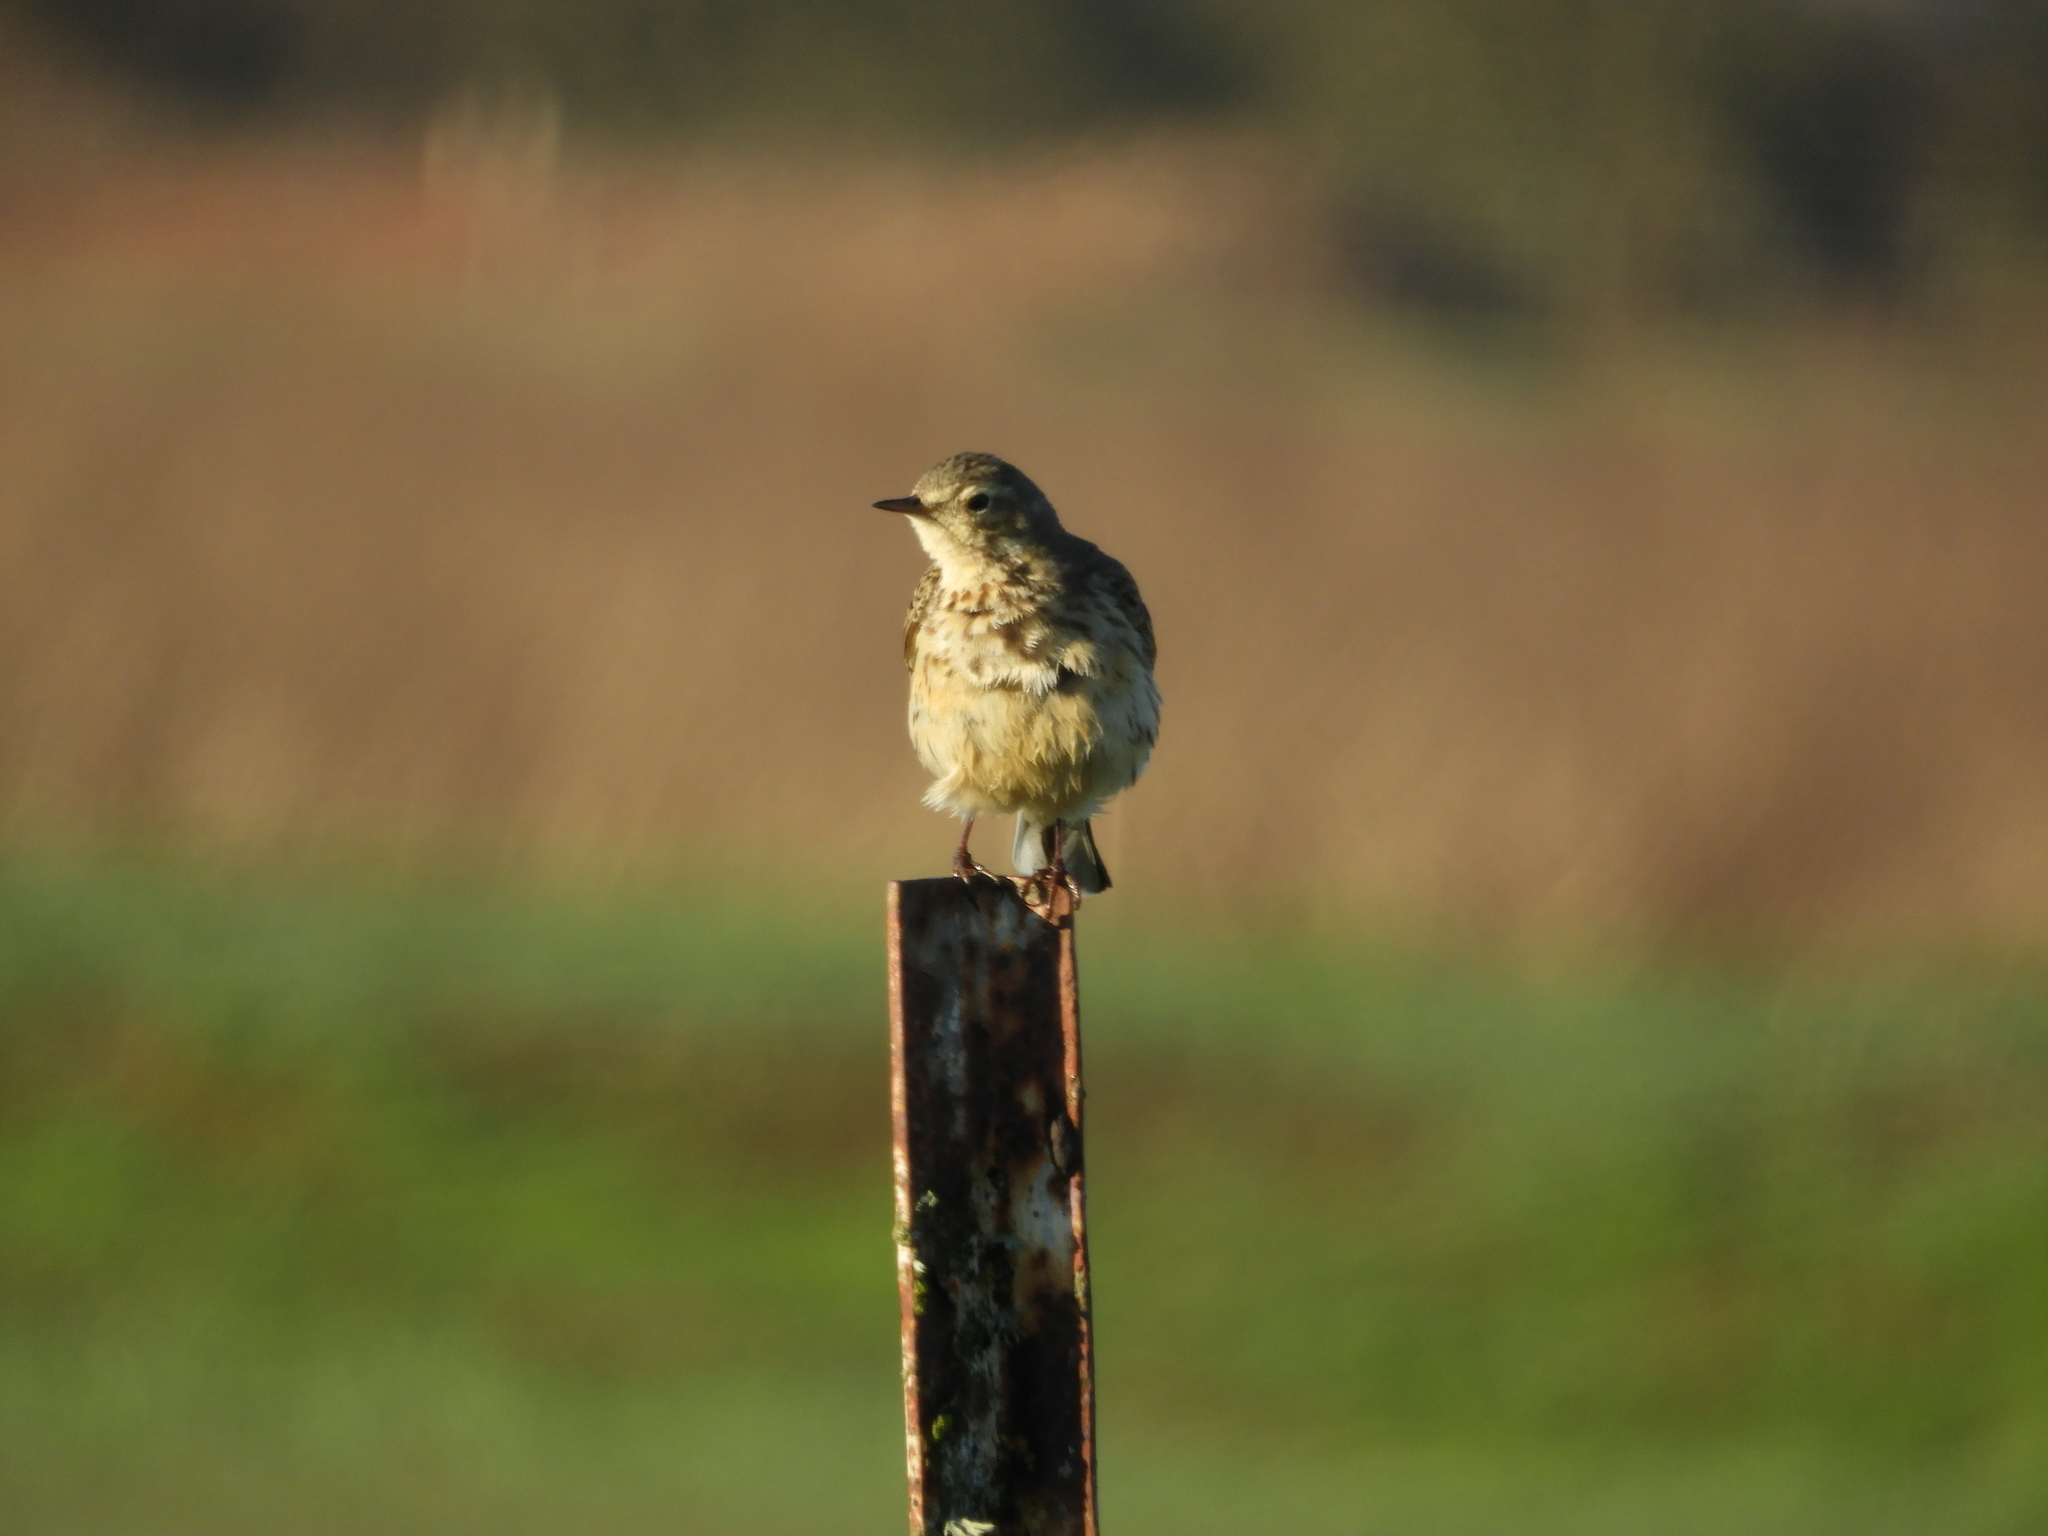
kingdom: Animalia
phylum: Chordata
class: Aves
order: Passeriformes
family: Motacillidae
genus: Anthus
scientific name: Anthus rubescens
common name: Buff-bellied pipit
